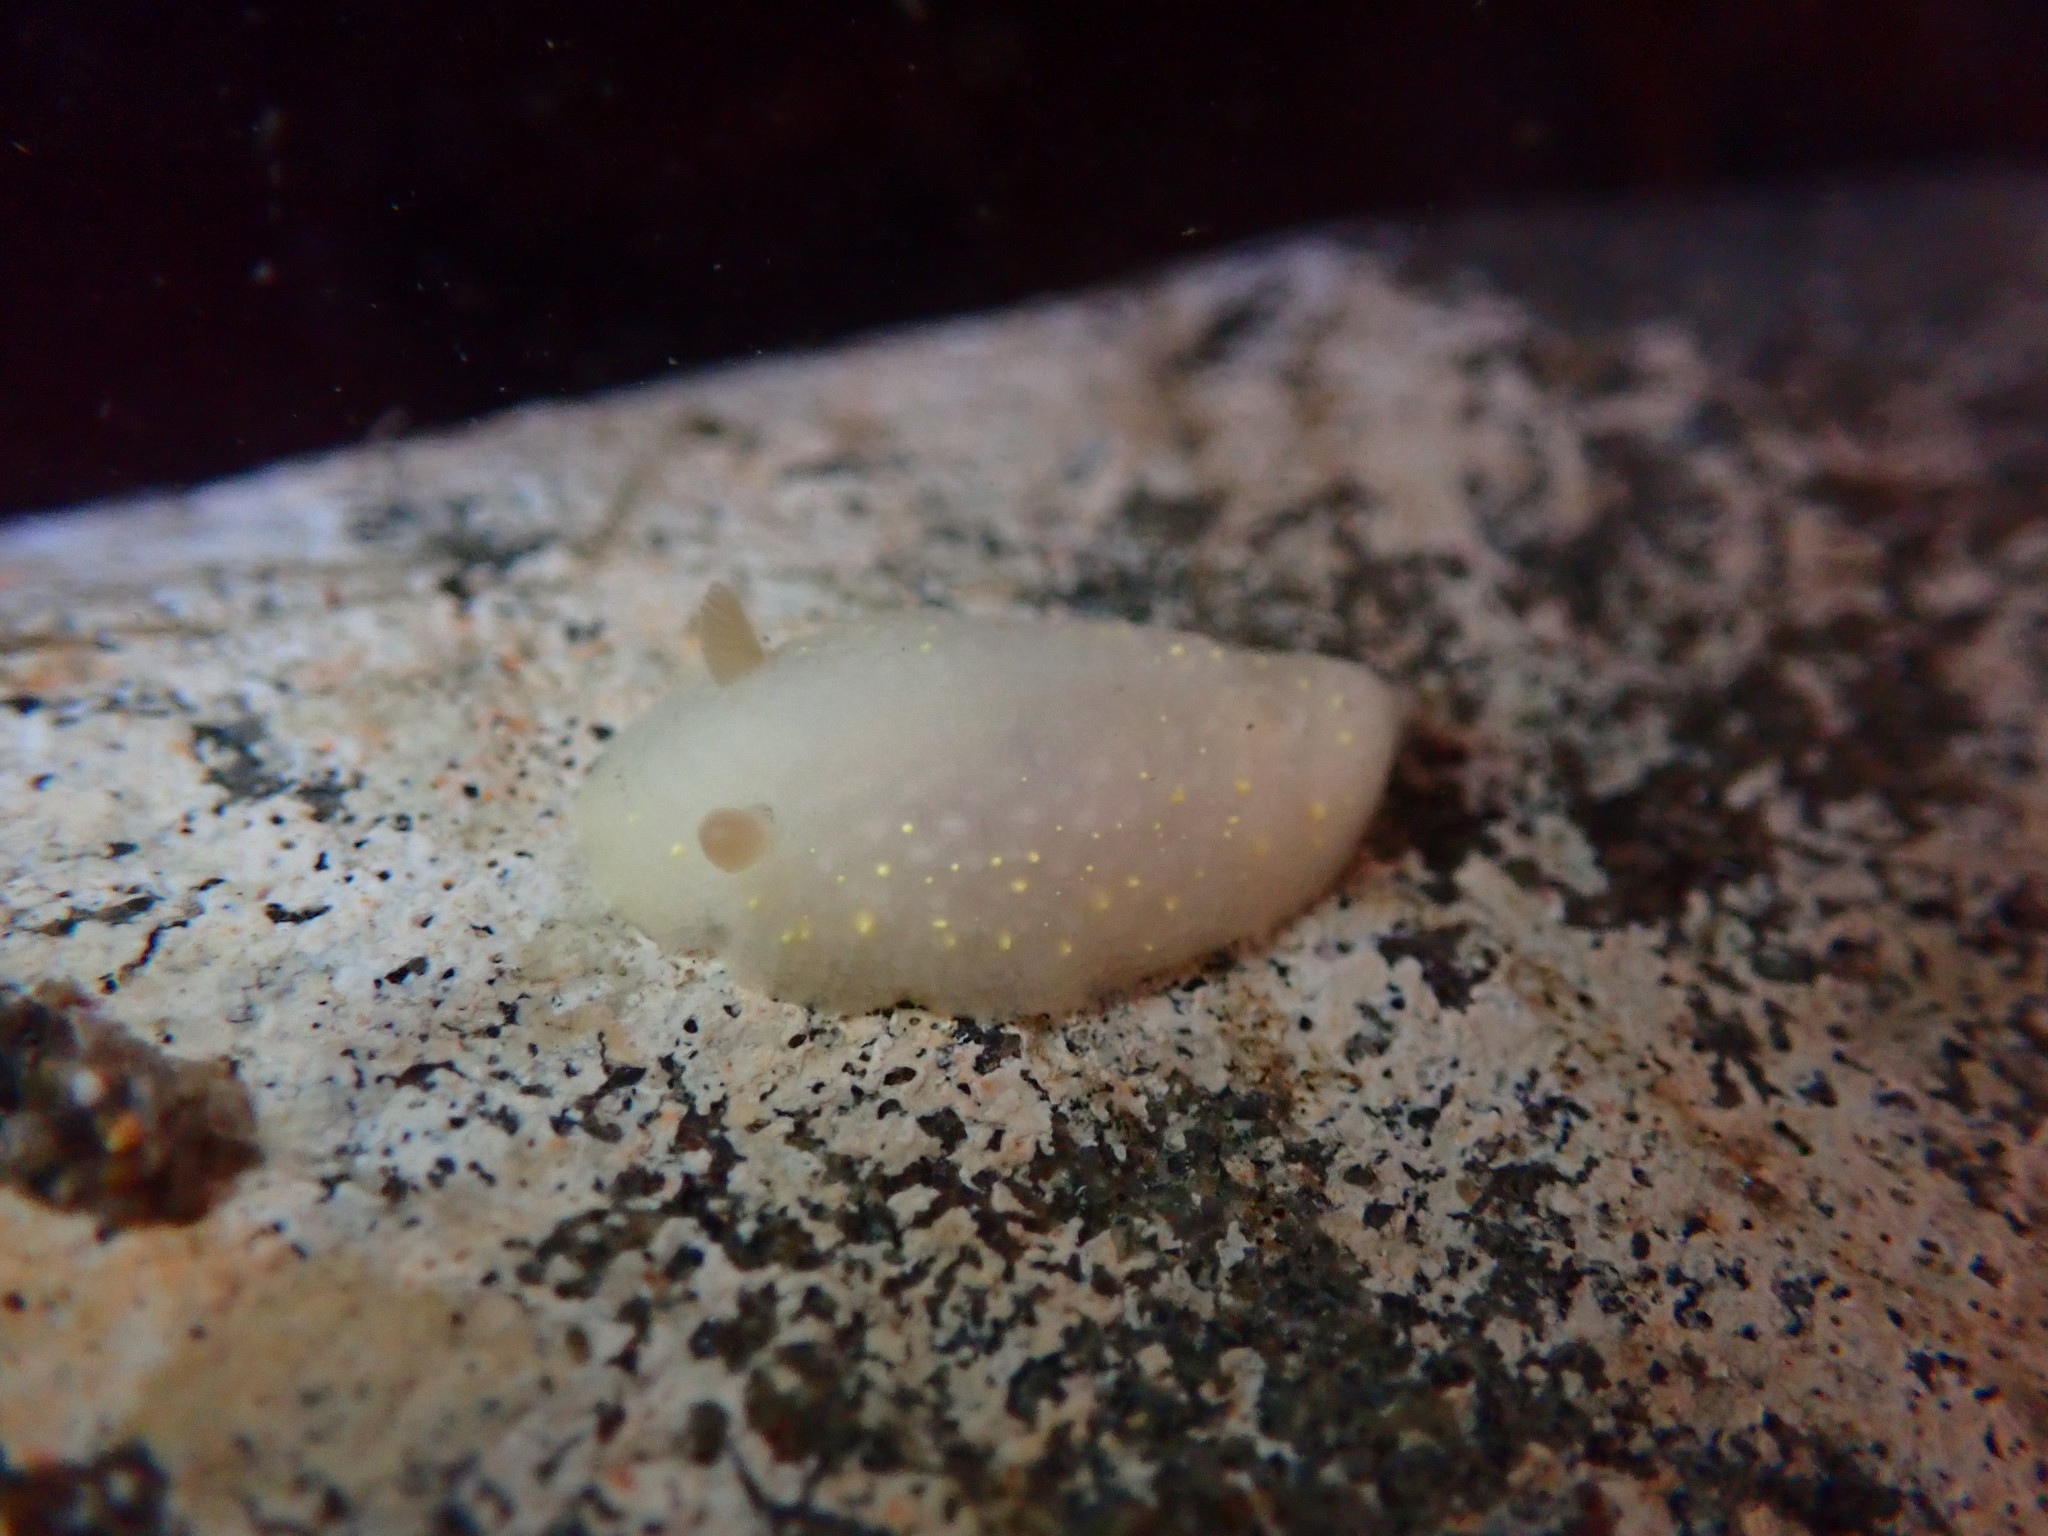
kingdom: Animalia
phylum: Mollusca
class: Gastropoda
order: Nudibranchia
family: Cadlinidae
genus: Cadlina
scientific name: Cadlina modesta
